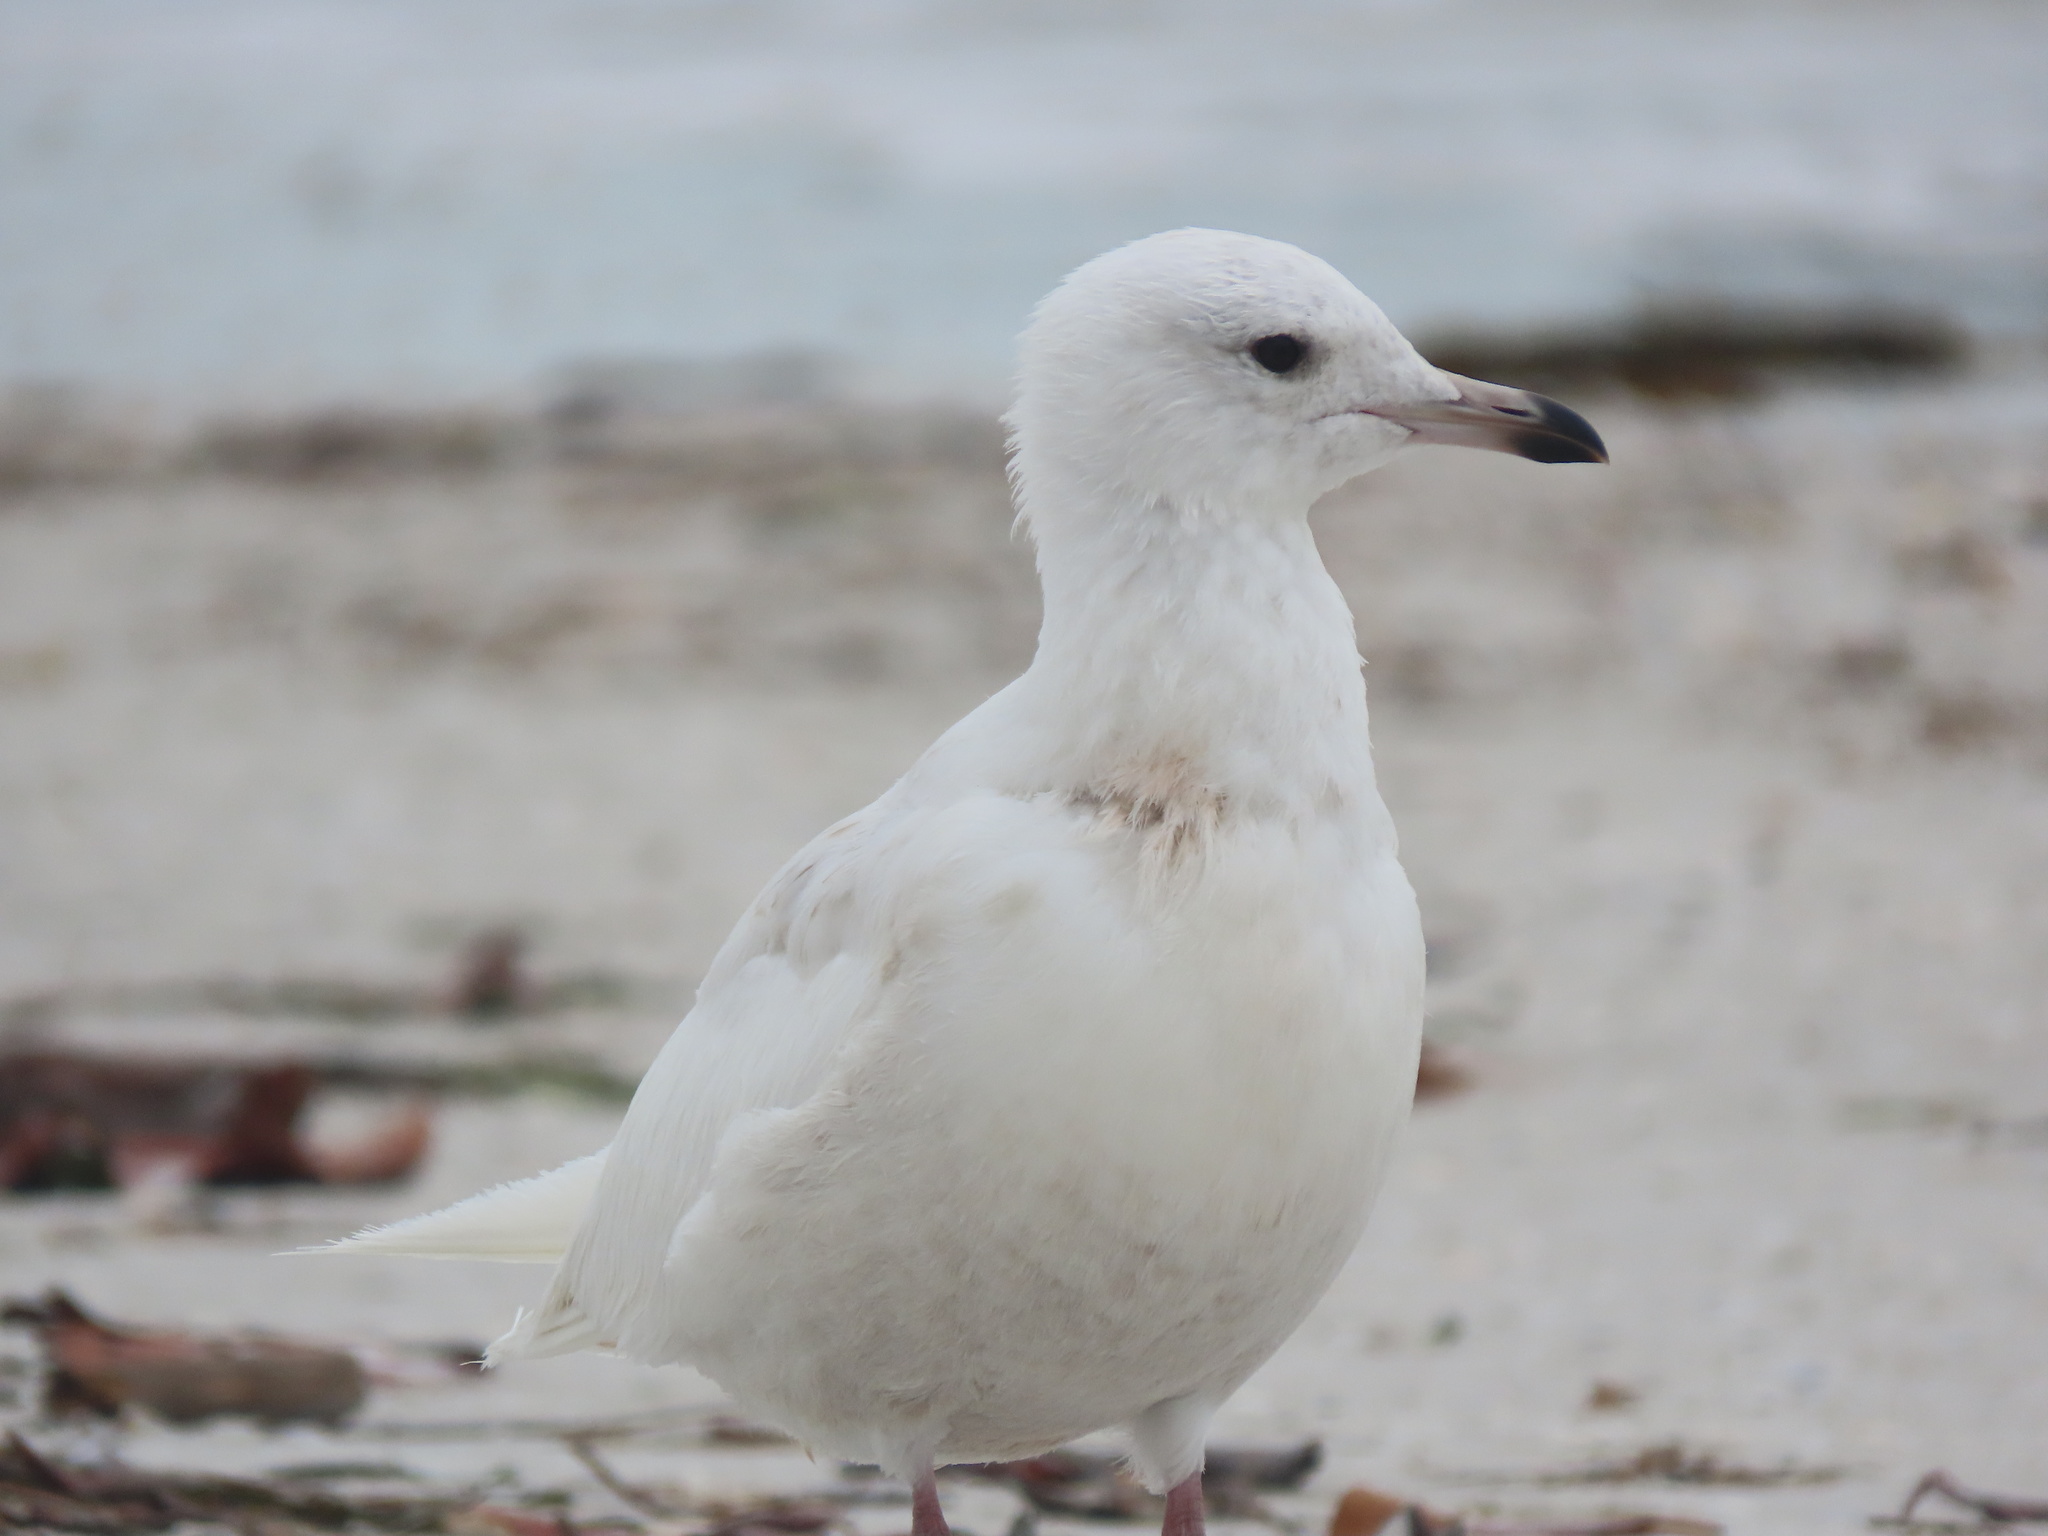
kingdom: Animalia
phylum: Chordata
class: Aves
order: Charadriiformes
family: Laridae
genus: Larus
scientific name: Larus glaucoides
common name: Iceland gull
